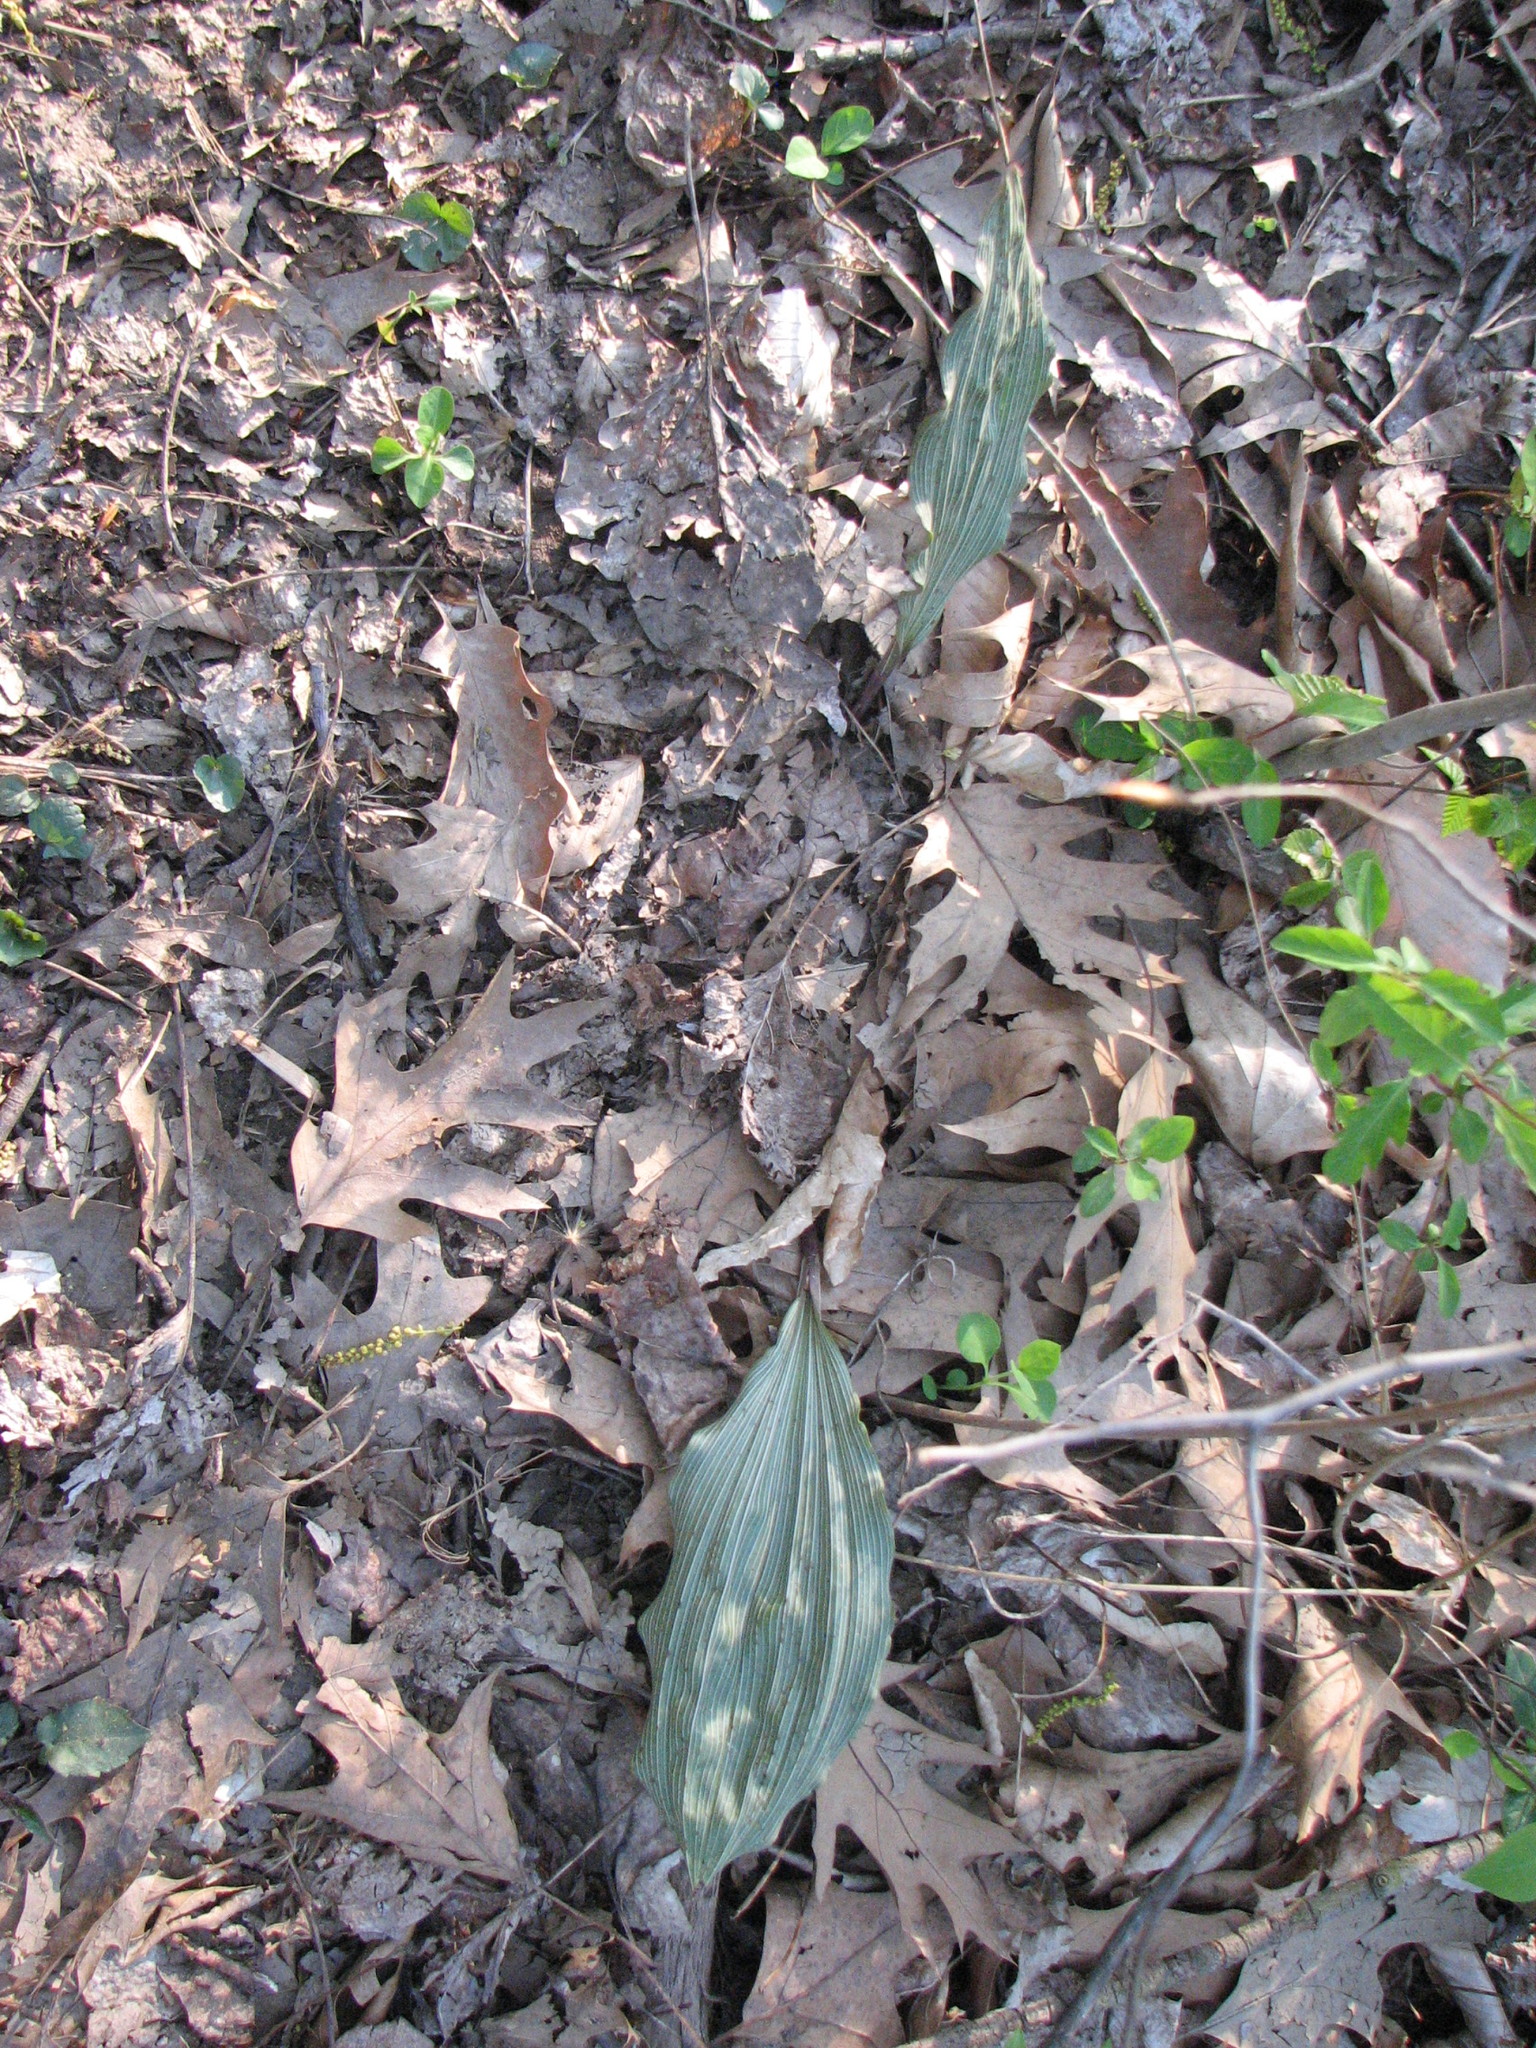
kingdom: Plantae
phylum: Tracheophyta
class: Liliopsida
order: Asparagales
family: Orchidaceae
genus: Aplectrum
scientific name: Aplectrum hyemale
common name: Adam-and-eve
